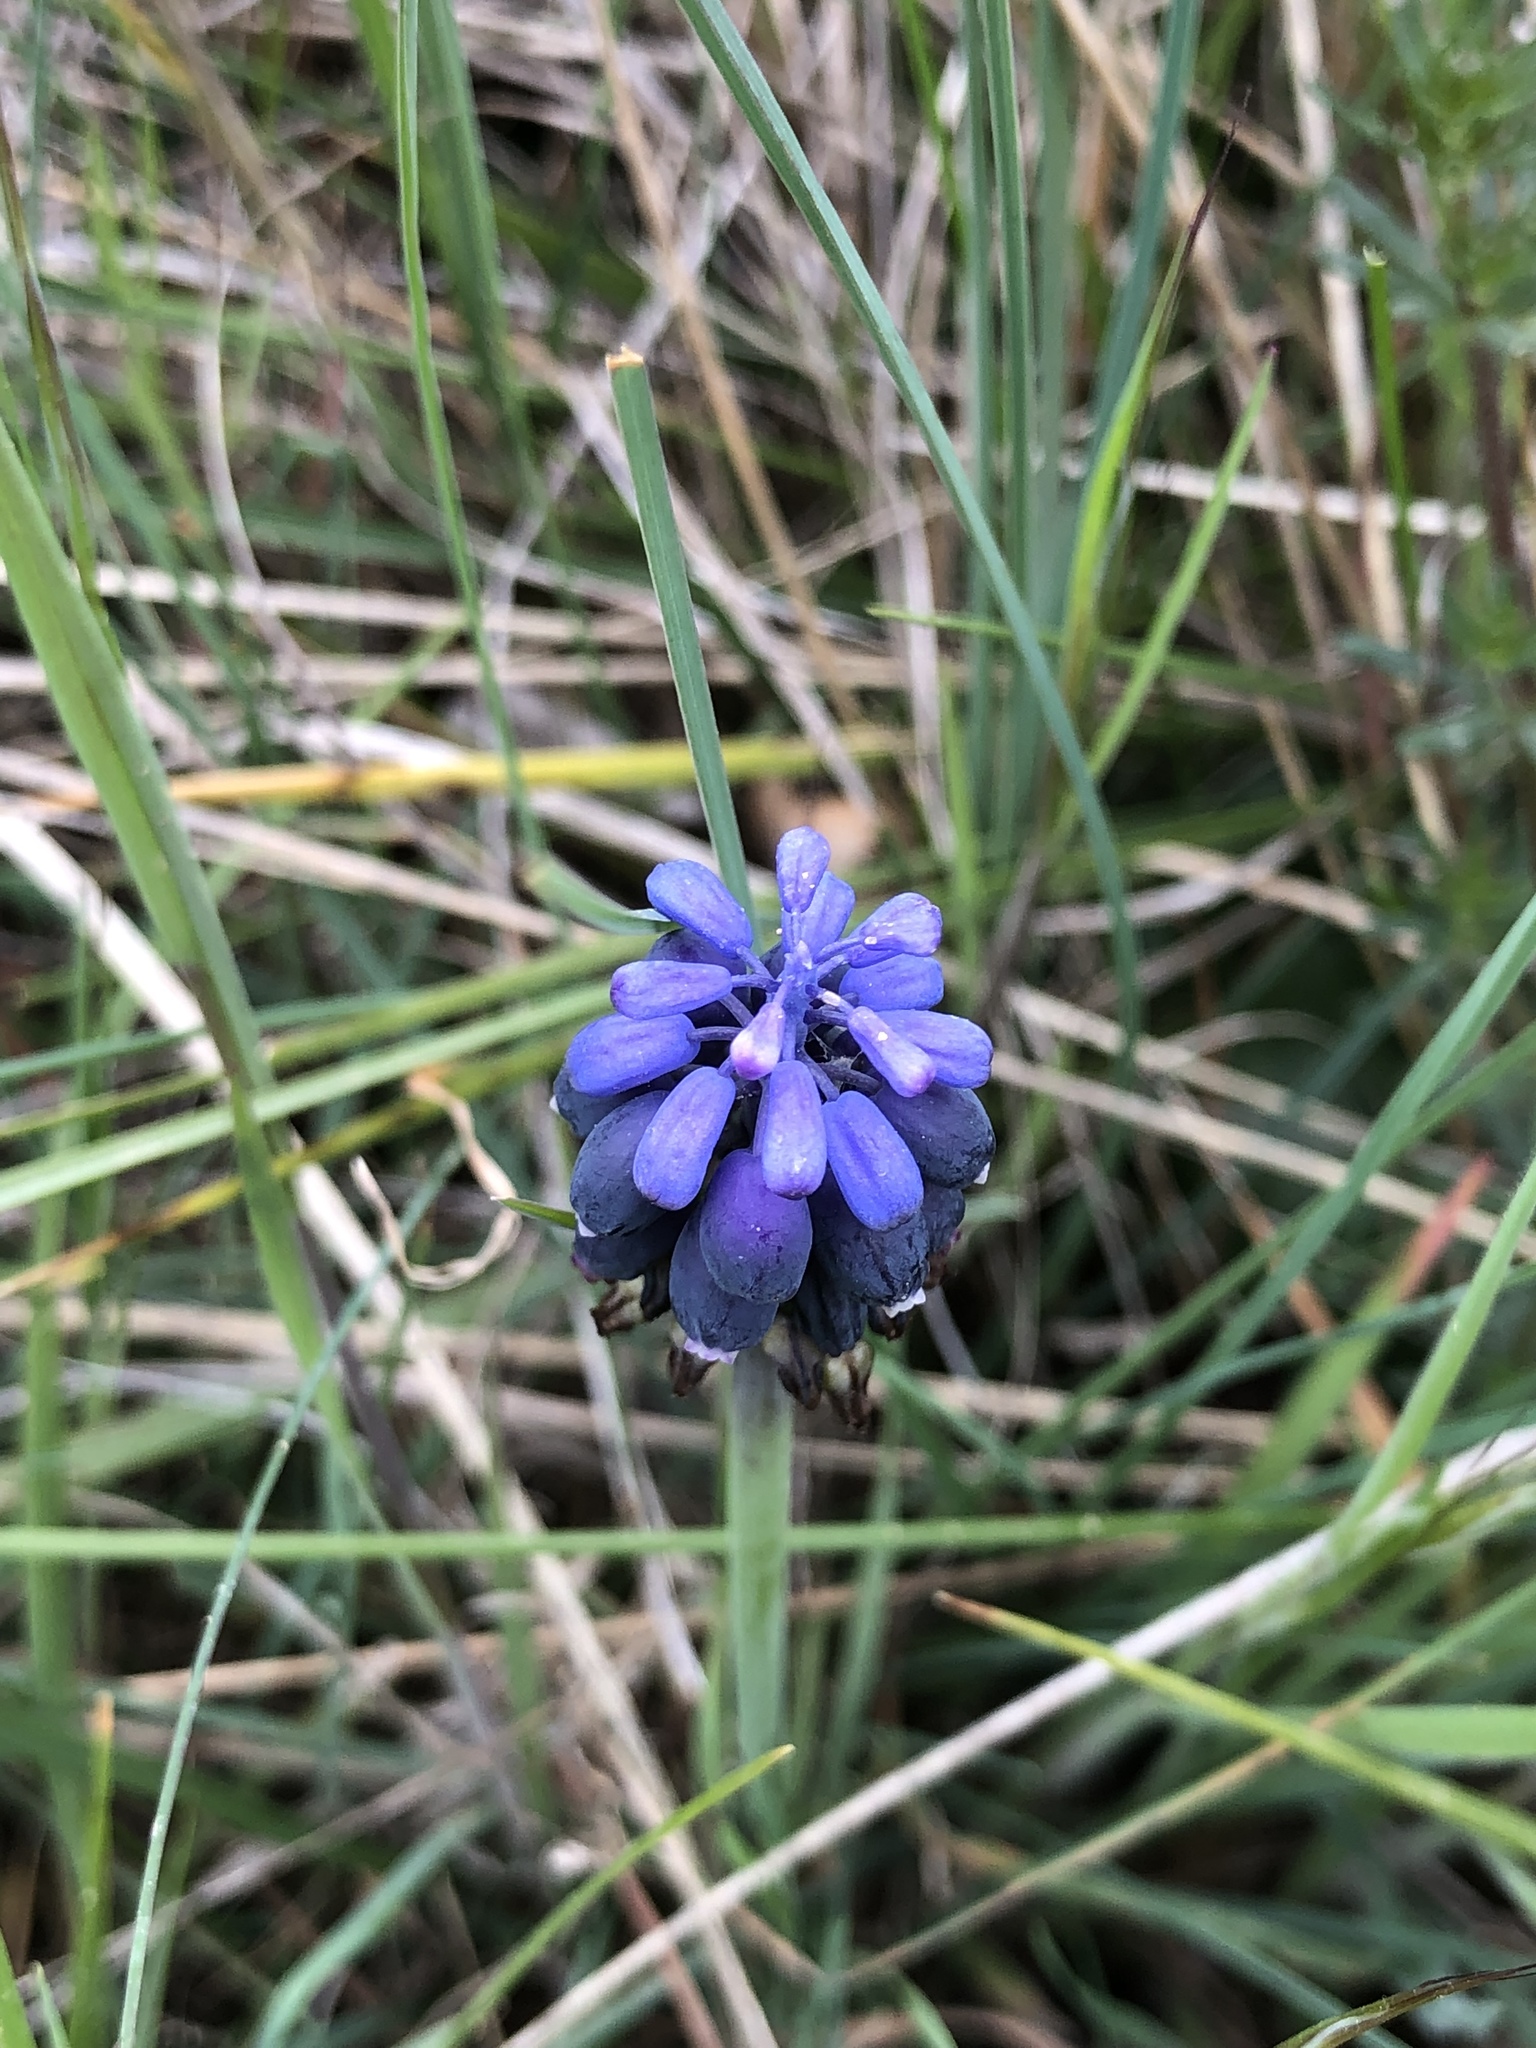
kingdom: Plantae
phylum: Tracheophyta
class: Liliopsida
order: Asparagales
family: Asparagaceae
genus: Muscari
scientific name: Muscari neglectum
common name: Grape-hyacinth
